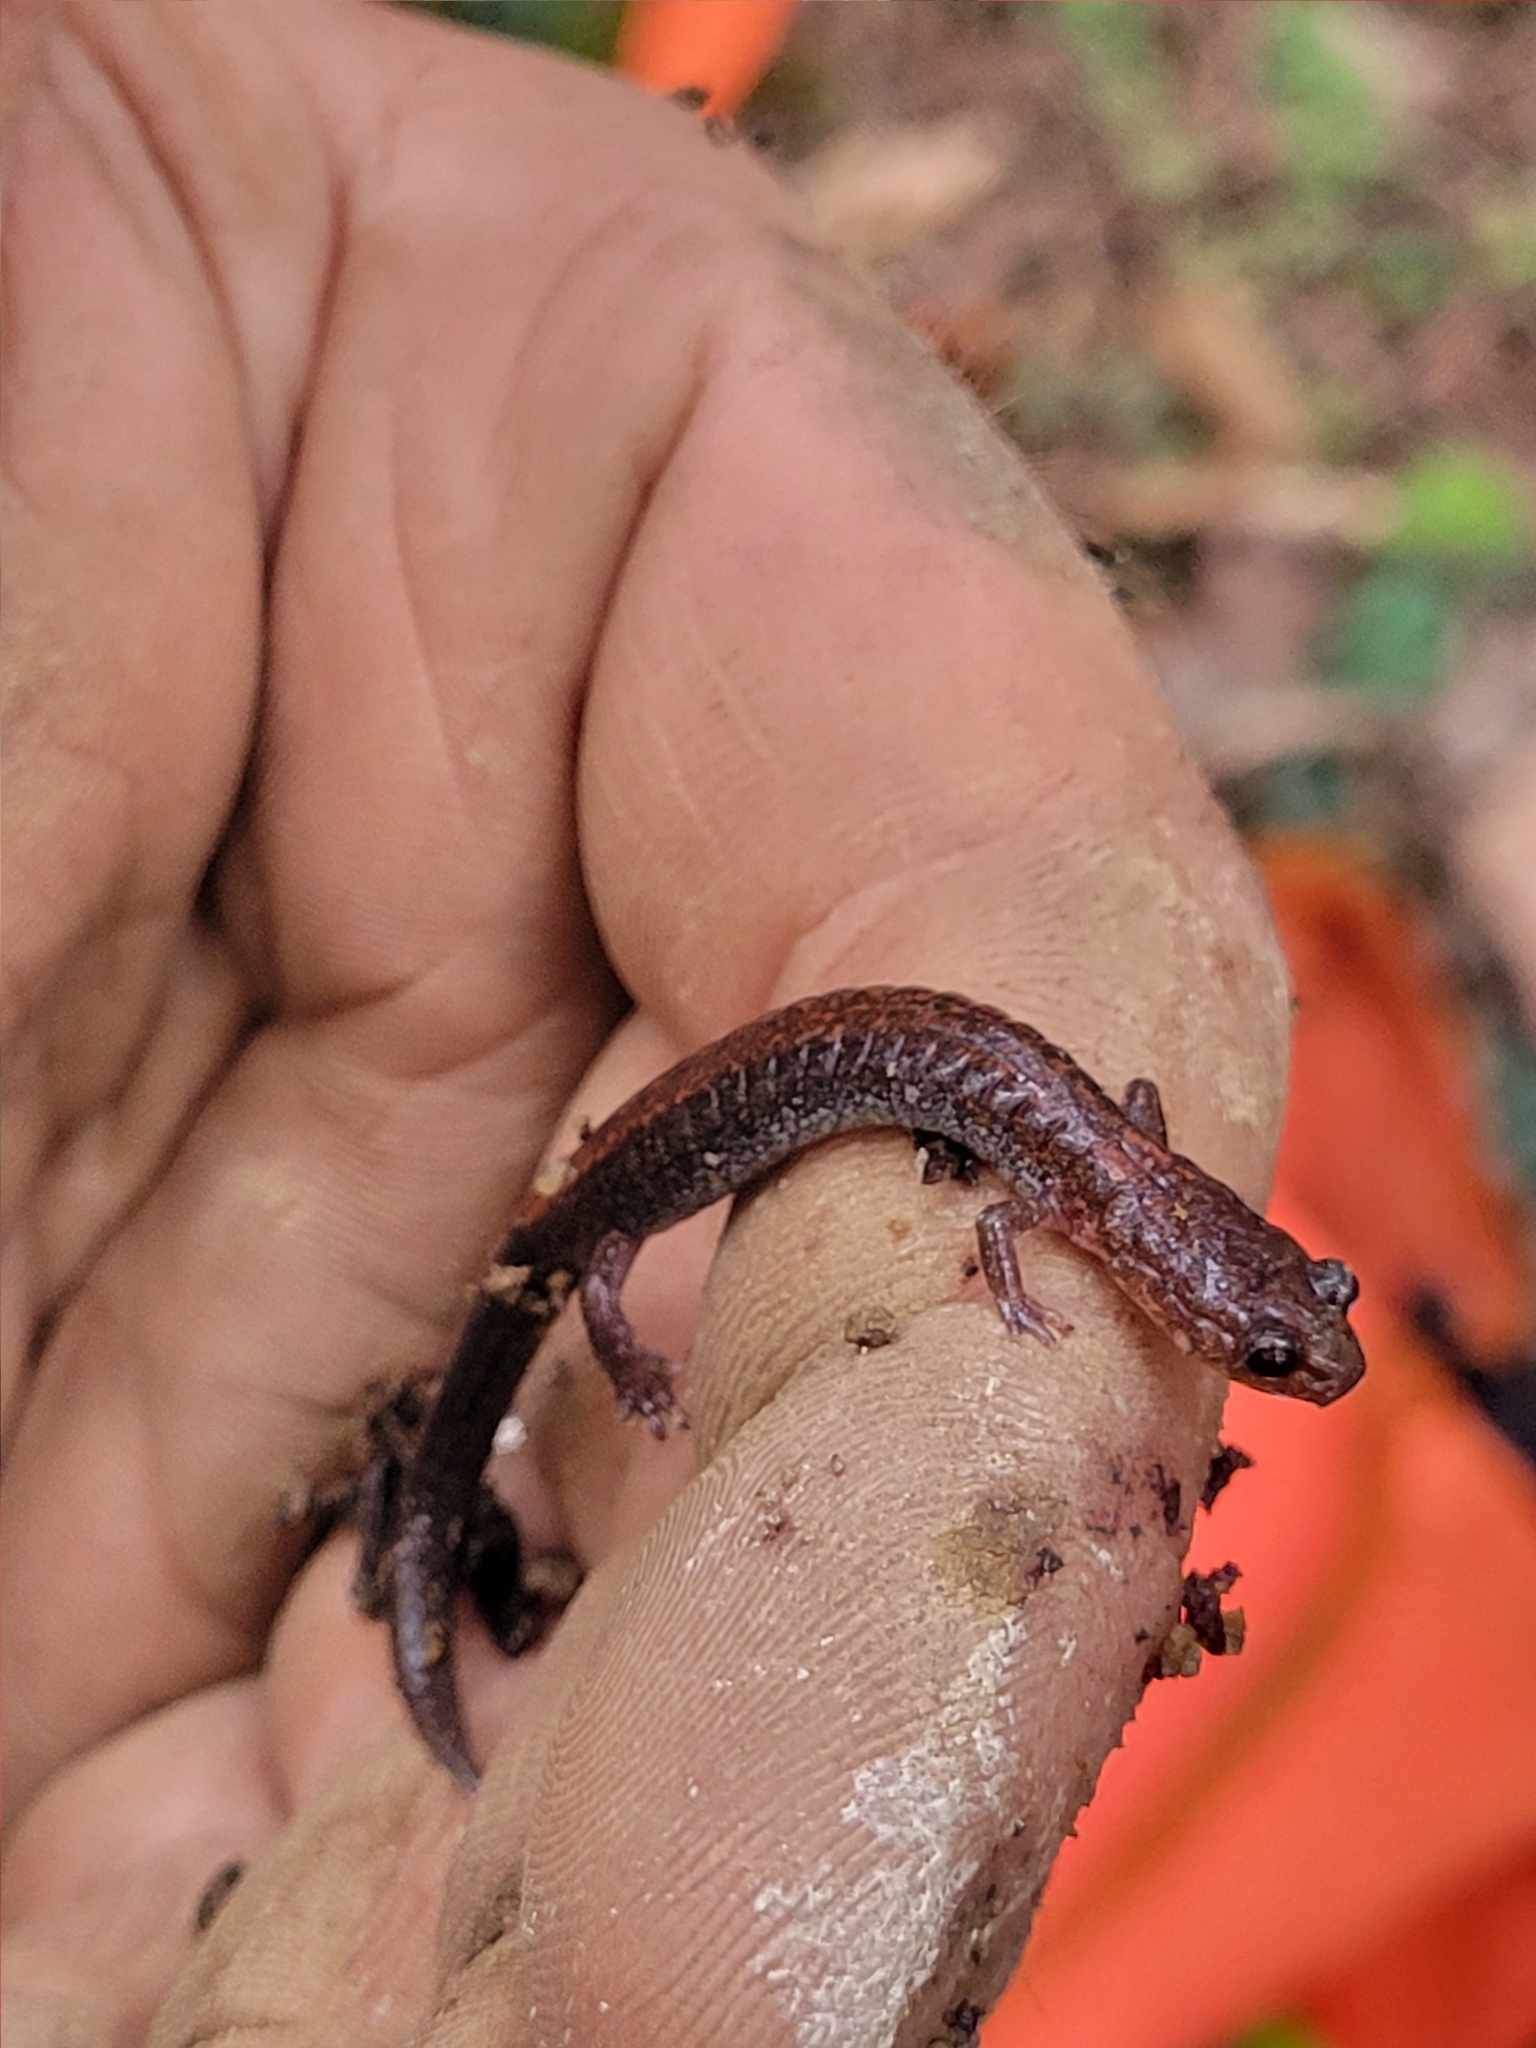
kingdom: Animalia
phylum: Chordata
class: Amphibia
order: Caudata
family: Plethodontidae
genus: Plethodon
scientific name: Plethodon cinereus
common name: Redback salamander
